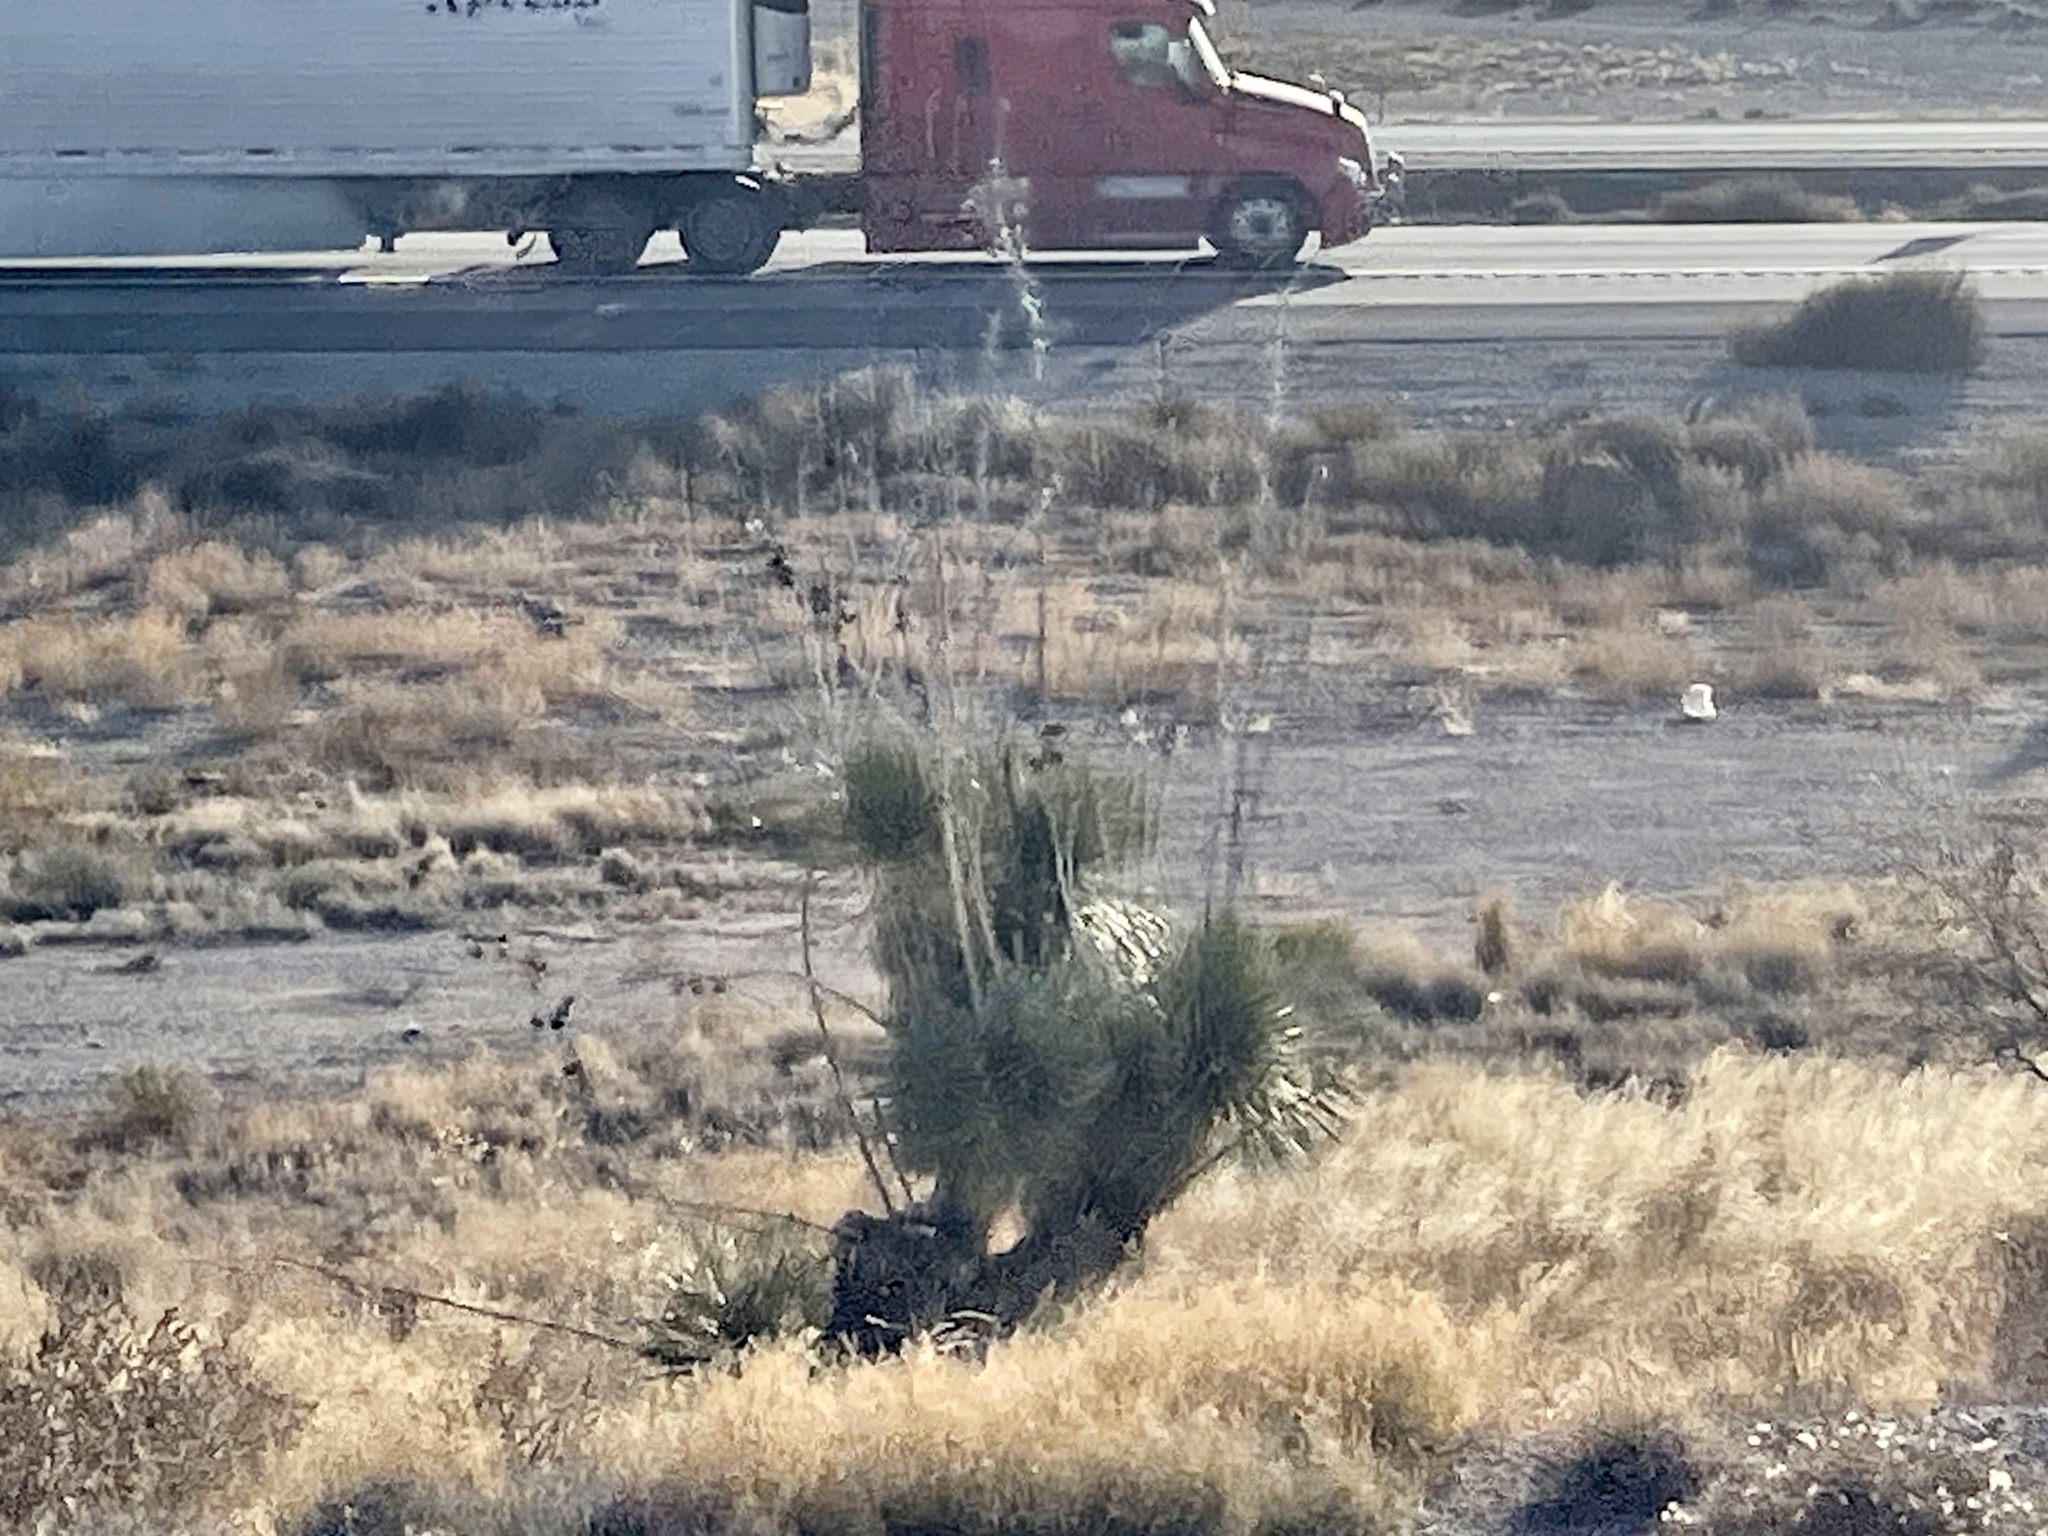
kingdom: Plantae
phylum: Tracheophyta
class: Liliopsida
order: Asparagales
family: Asparagaceae
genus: Yucca
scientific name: Yucca elata
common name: Palmella
